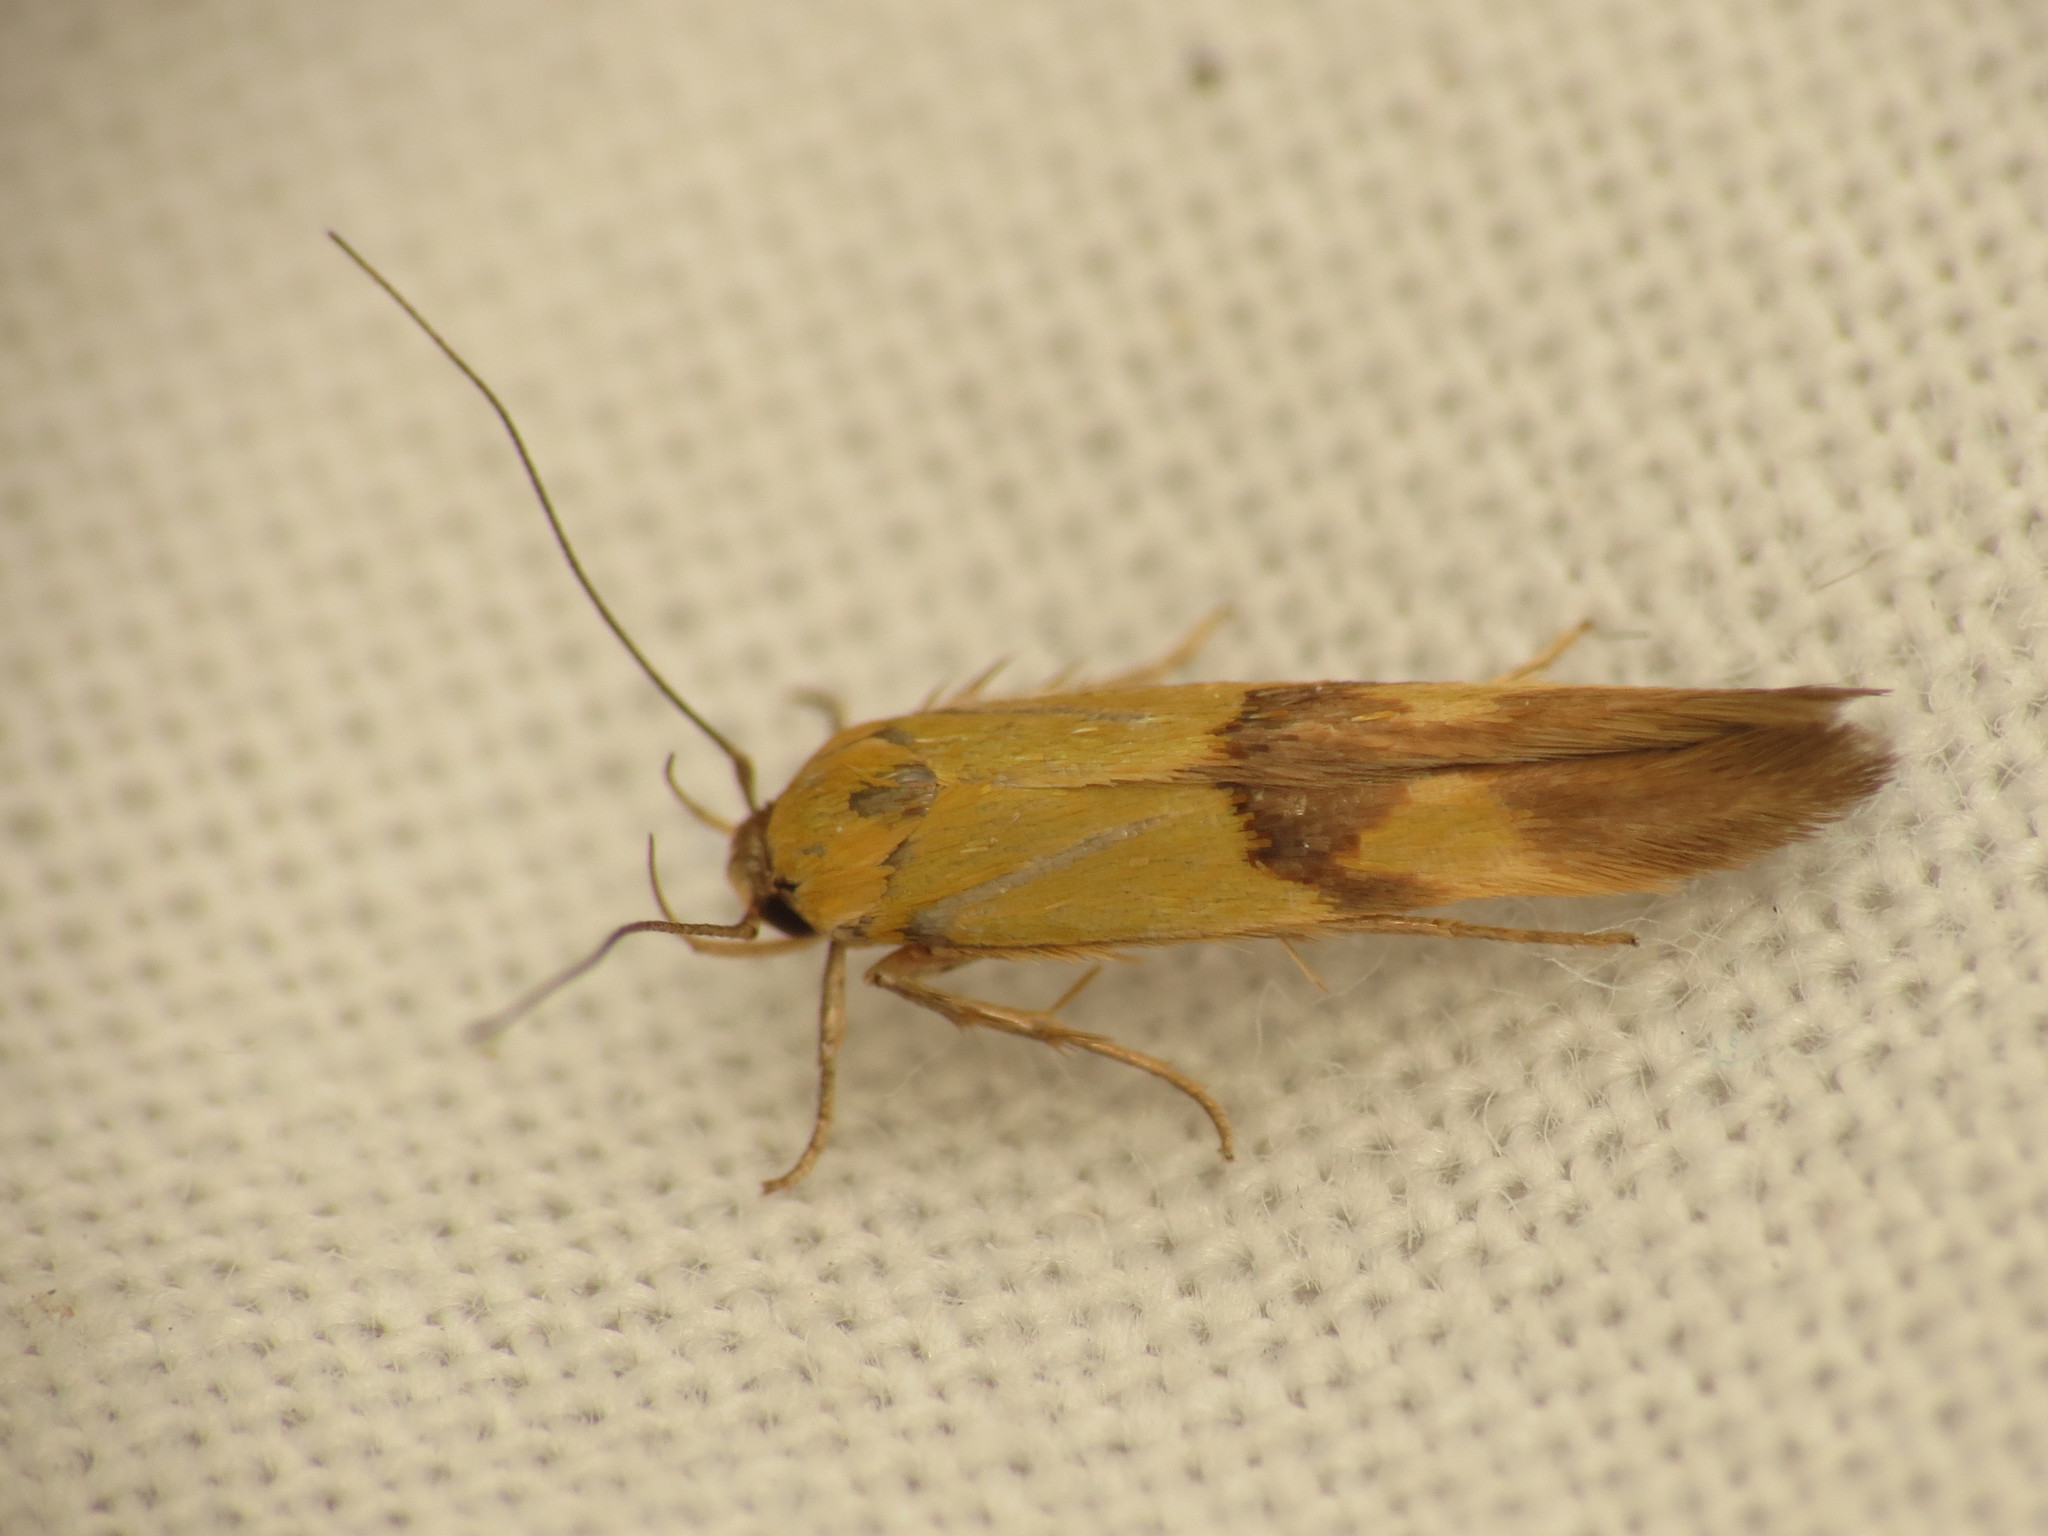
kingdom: Animalia
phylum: Arthropoda
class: Insecta
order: Lepidoptera
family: Stathmopodidae
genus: Stathmopoda
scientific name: Stathmopoda auriferella
